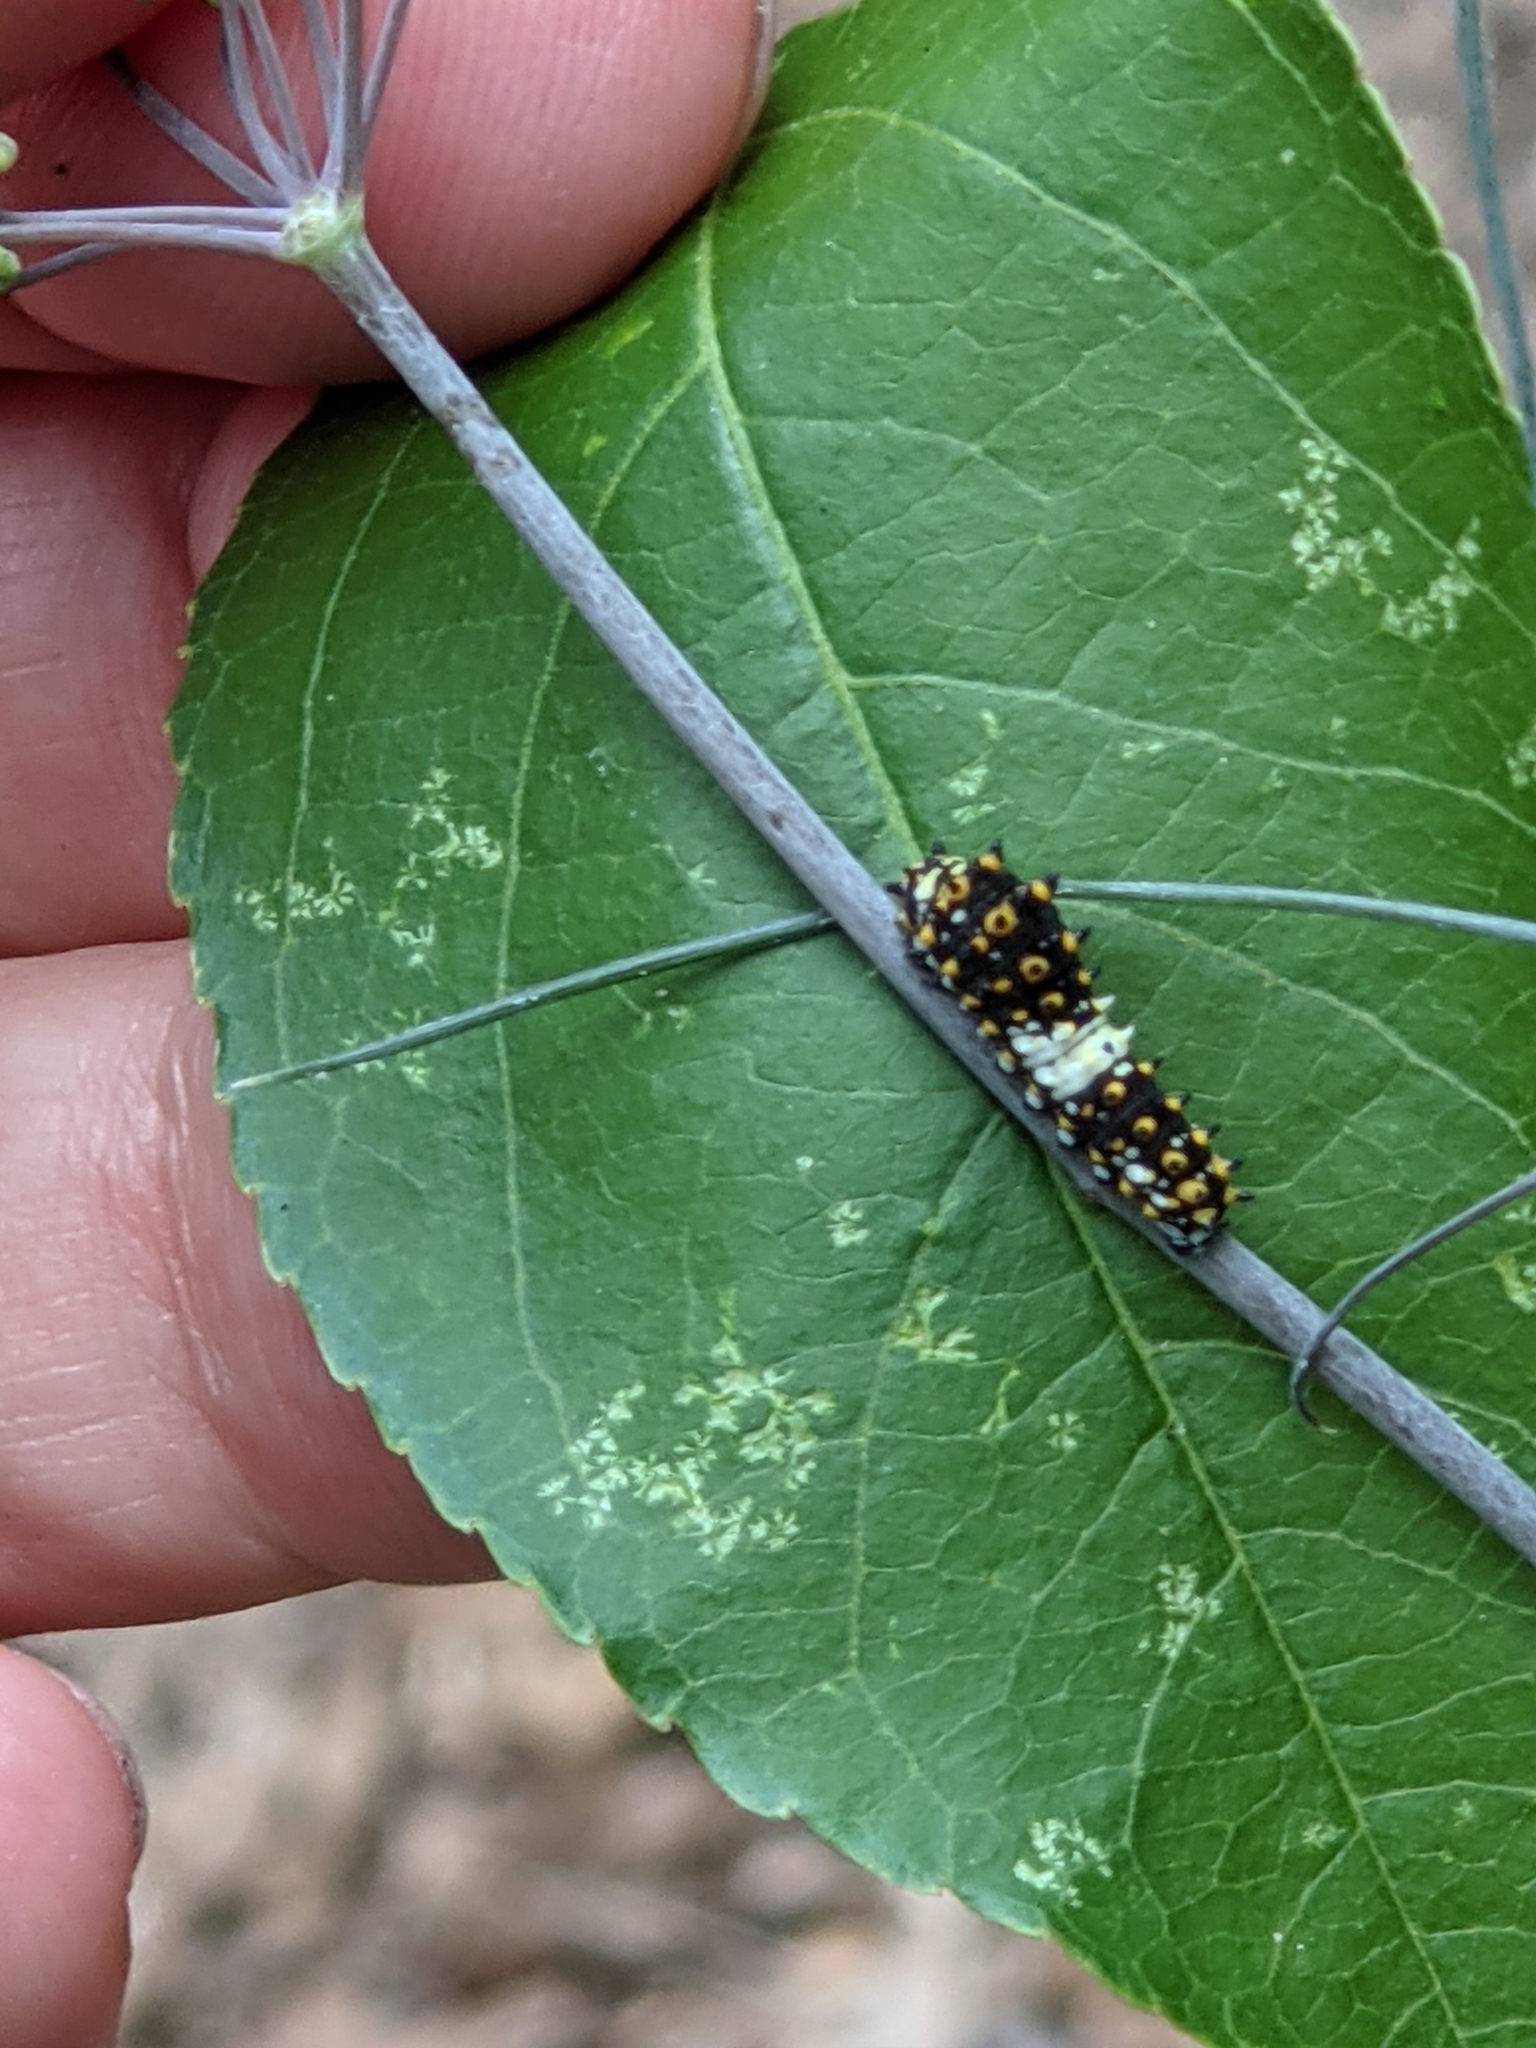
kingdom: Animalia
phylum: Arthropoda
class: Insecta
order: Lepidoptera
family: Papilionidae
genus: Papilio
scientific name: Papilio polyxenes
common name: Black swallowtail
